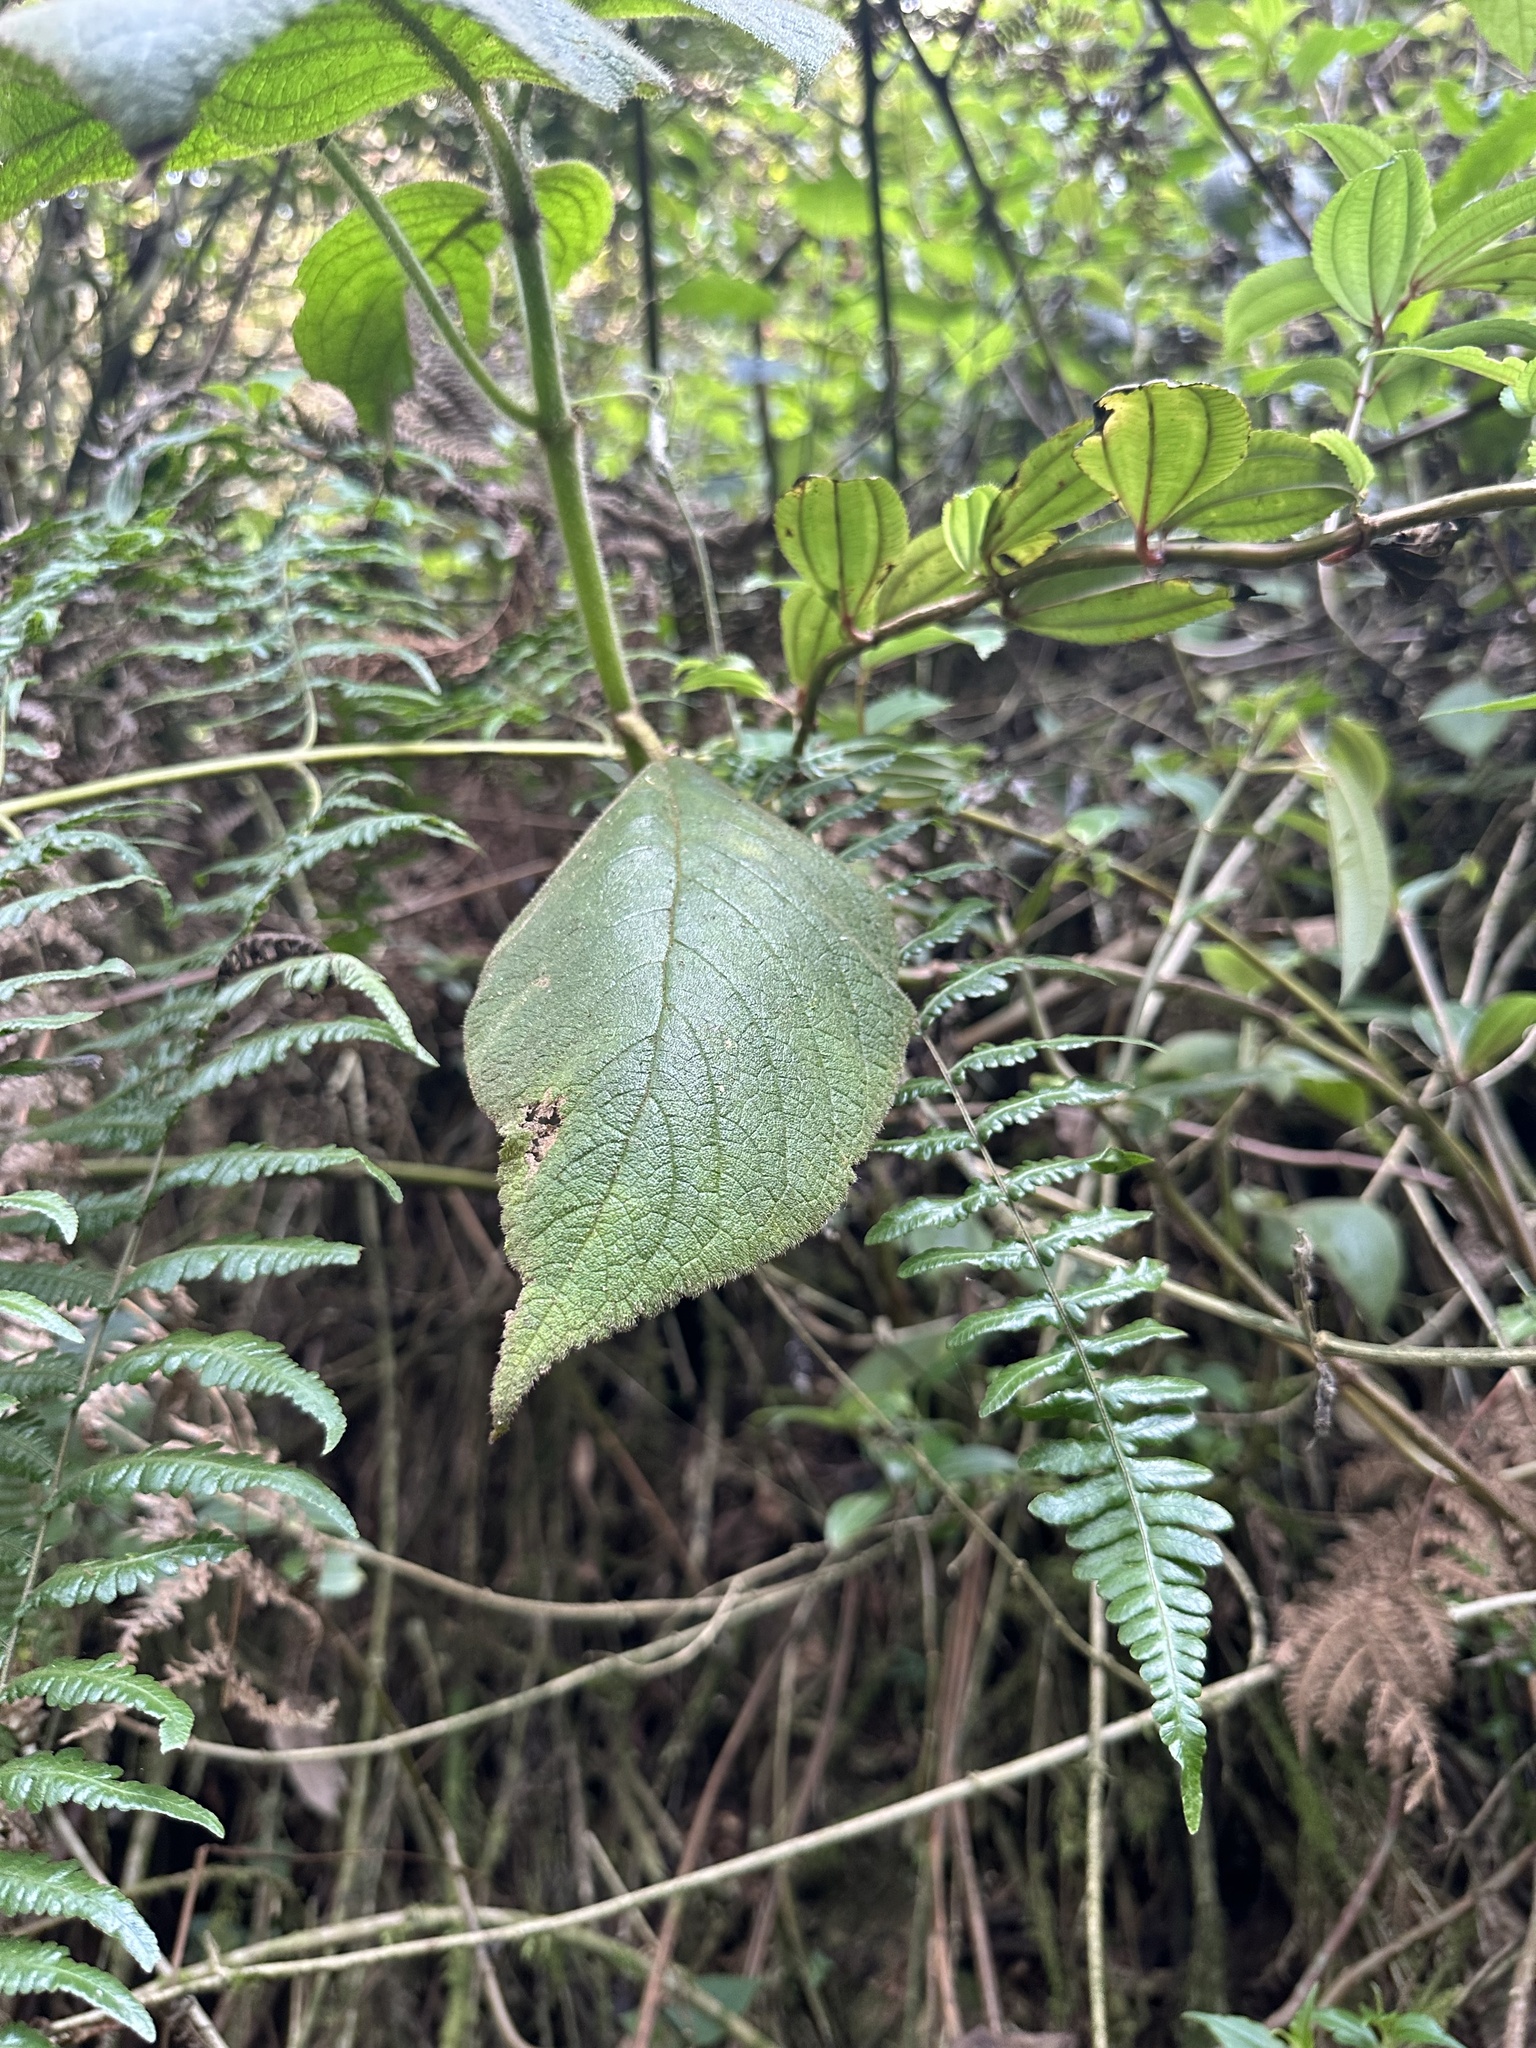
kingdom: Plantae
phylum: Tracheophyta
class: Magnoliopsida
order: Lamiales
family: Gesneriaceae
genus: Kohleria
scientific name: Kohleria tigridia
